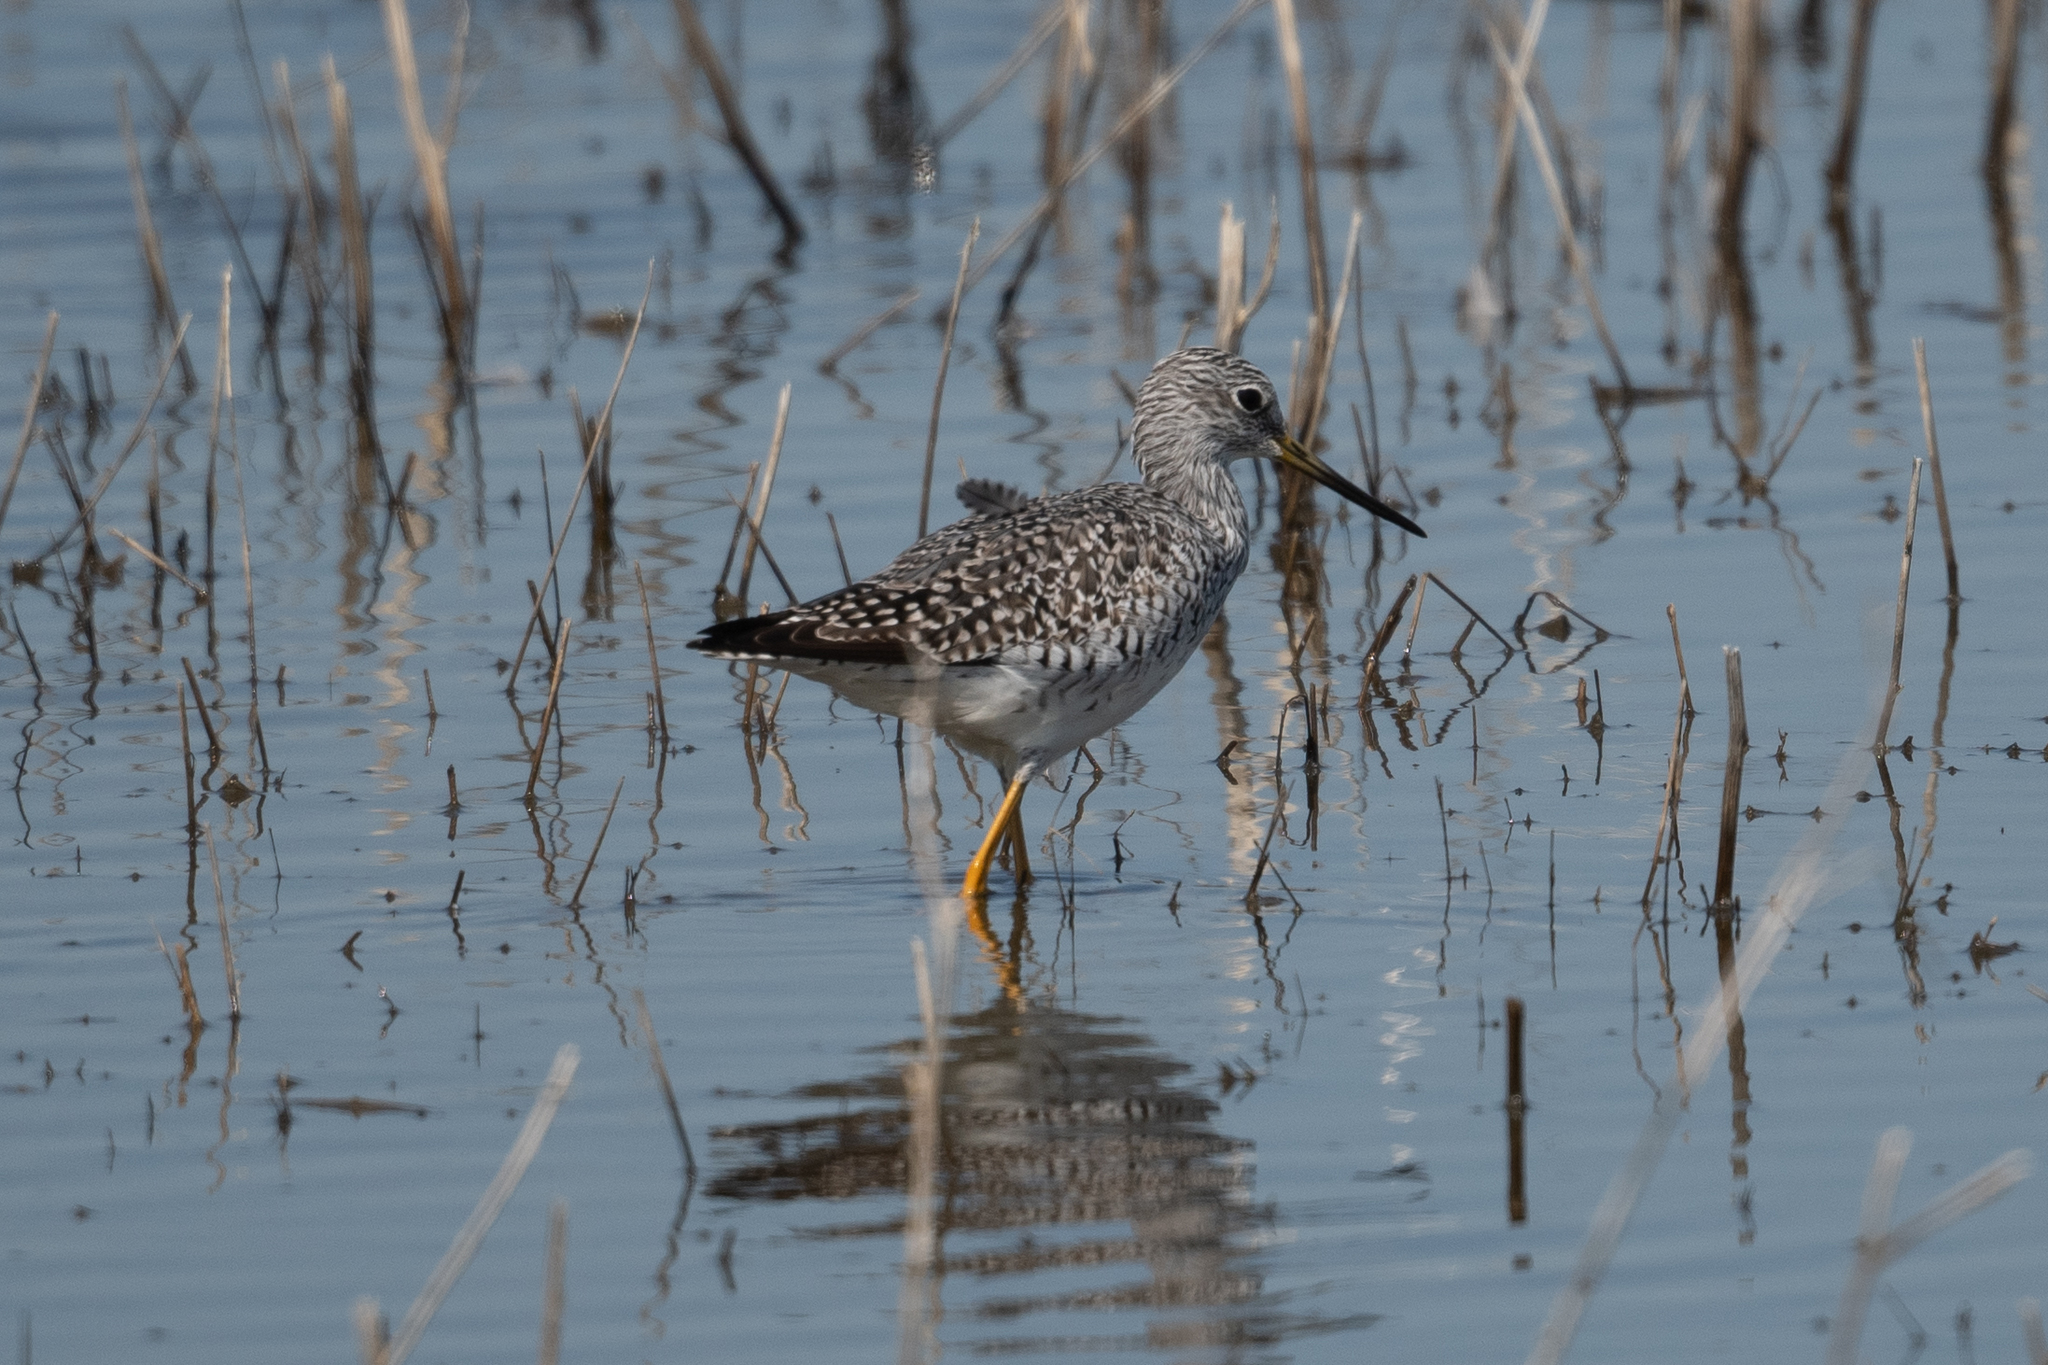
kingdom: Animalia
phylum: Chordata
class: Aves
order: Charadriiformes
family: Scolopacidae
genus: Tringa
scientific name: Tringa melanoleuca
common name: Greater yellowlegs
